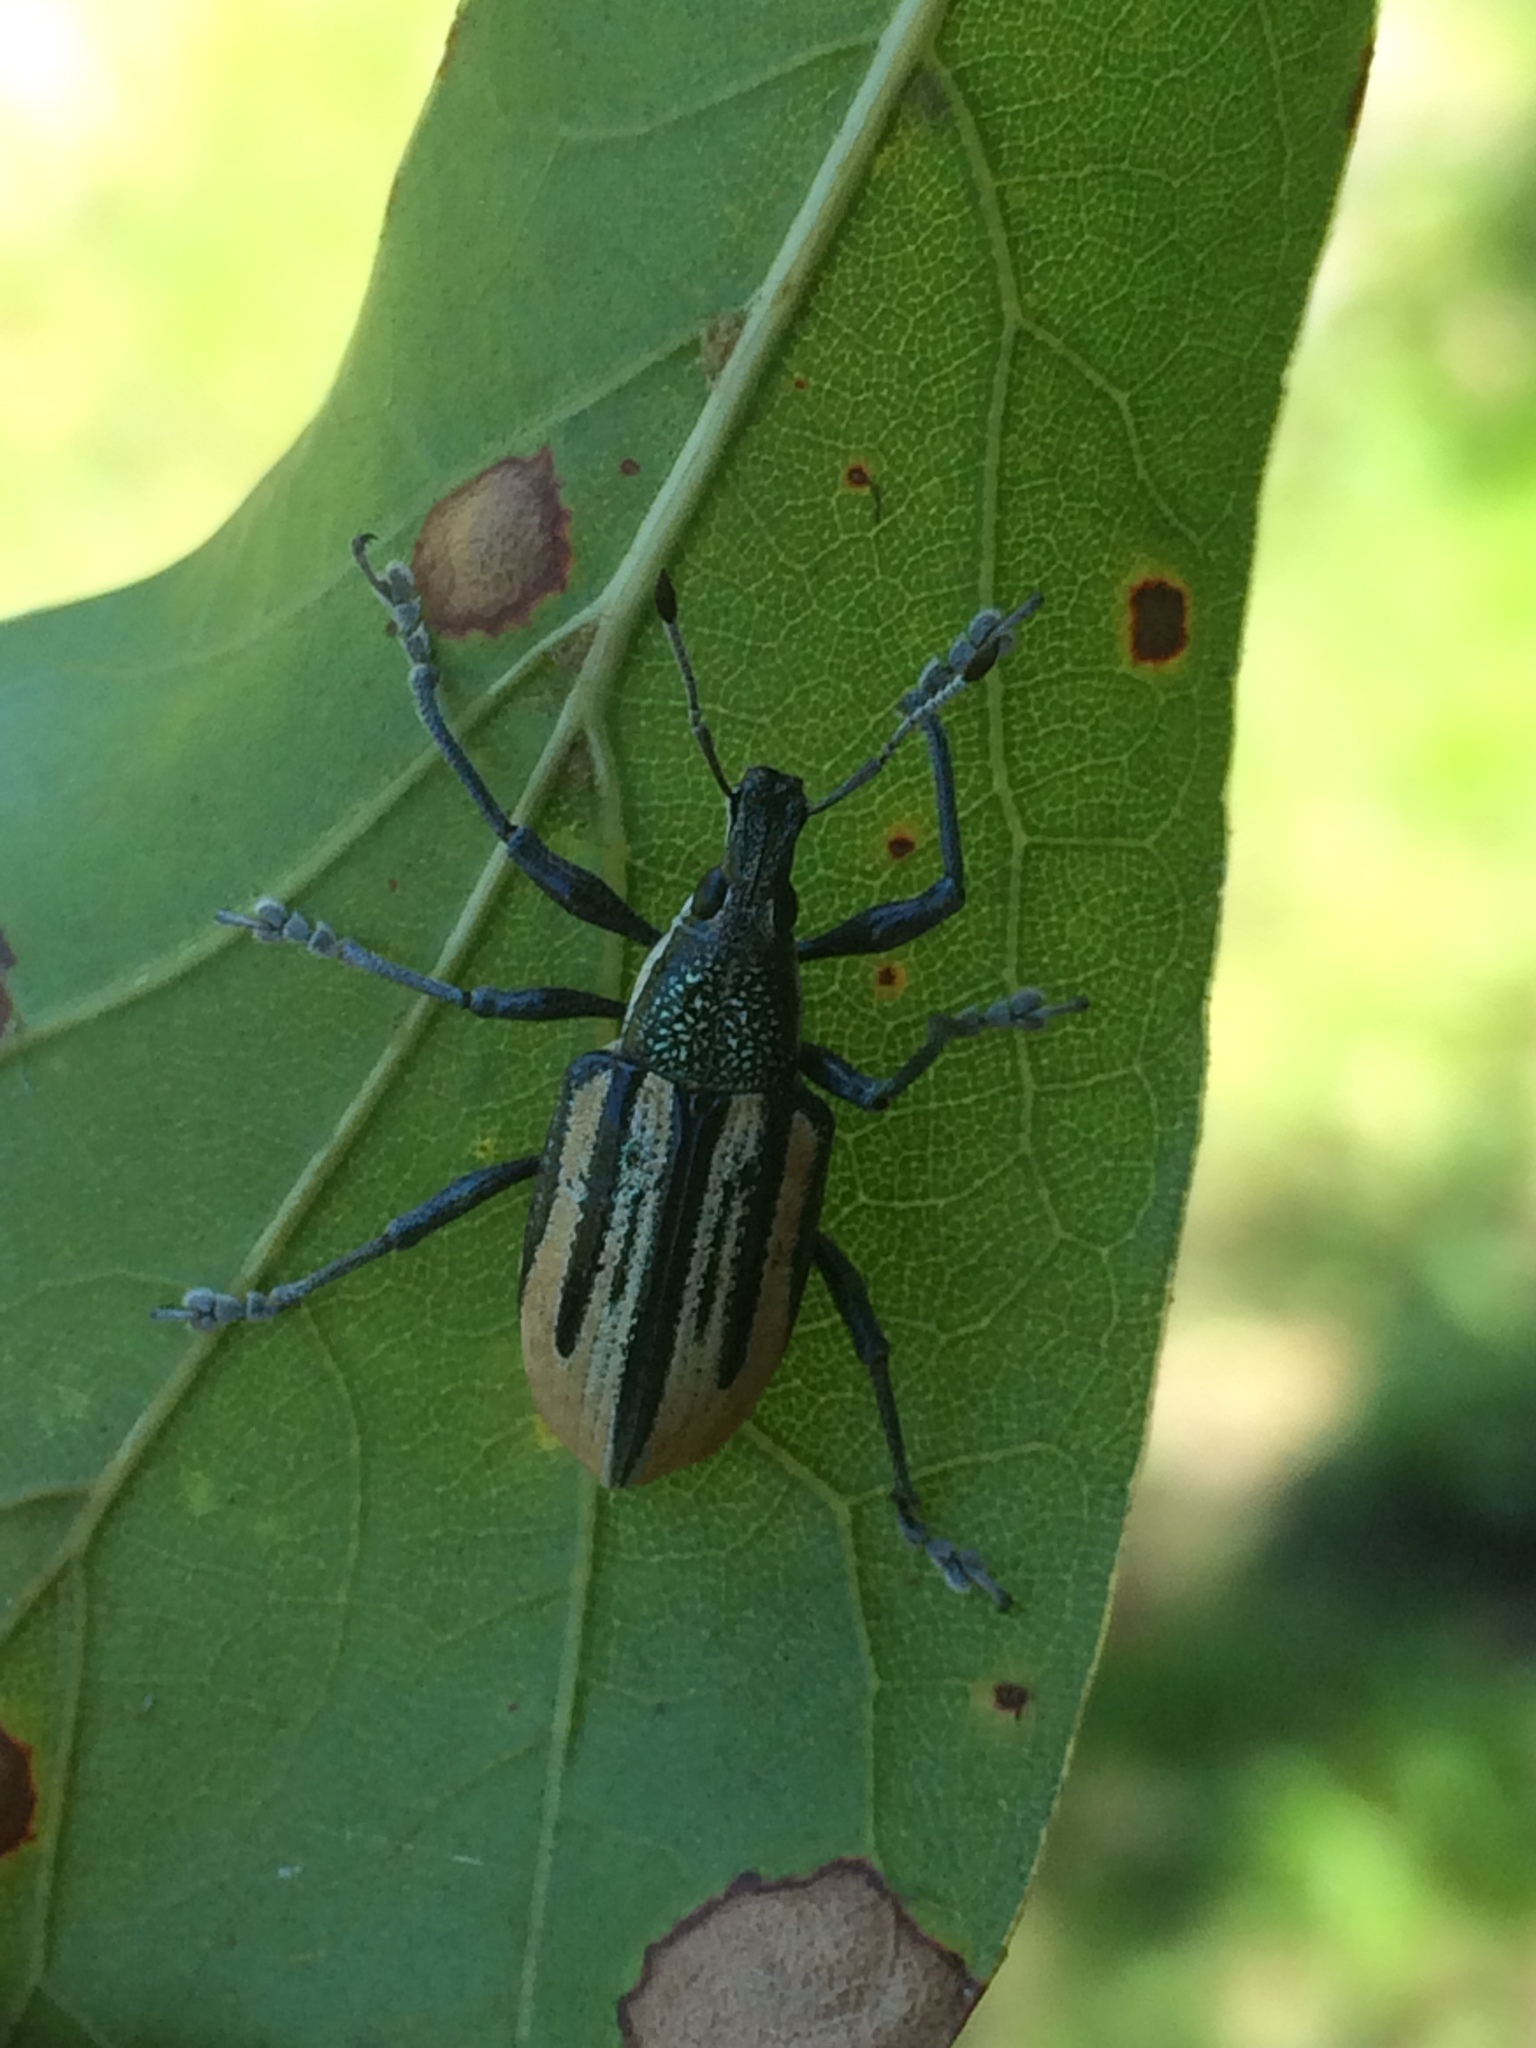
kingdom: Animalia
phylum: Arthropoda
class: Insecta
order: Coleoptera
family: Curculionidae
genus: Diaprepes
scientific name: Diaprepes abbreviatus
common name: Root weevil
